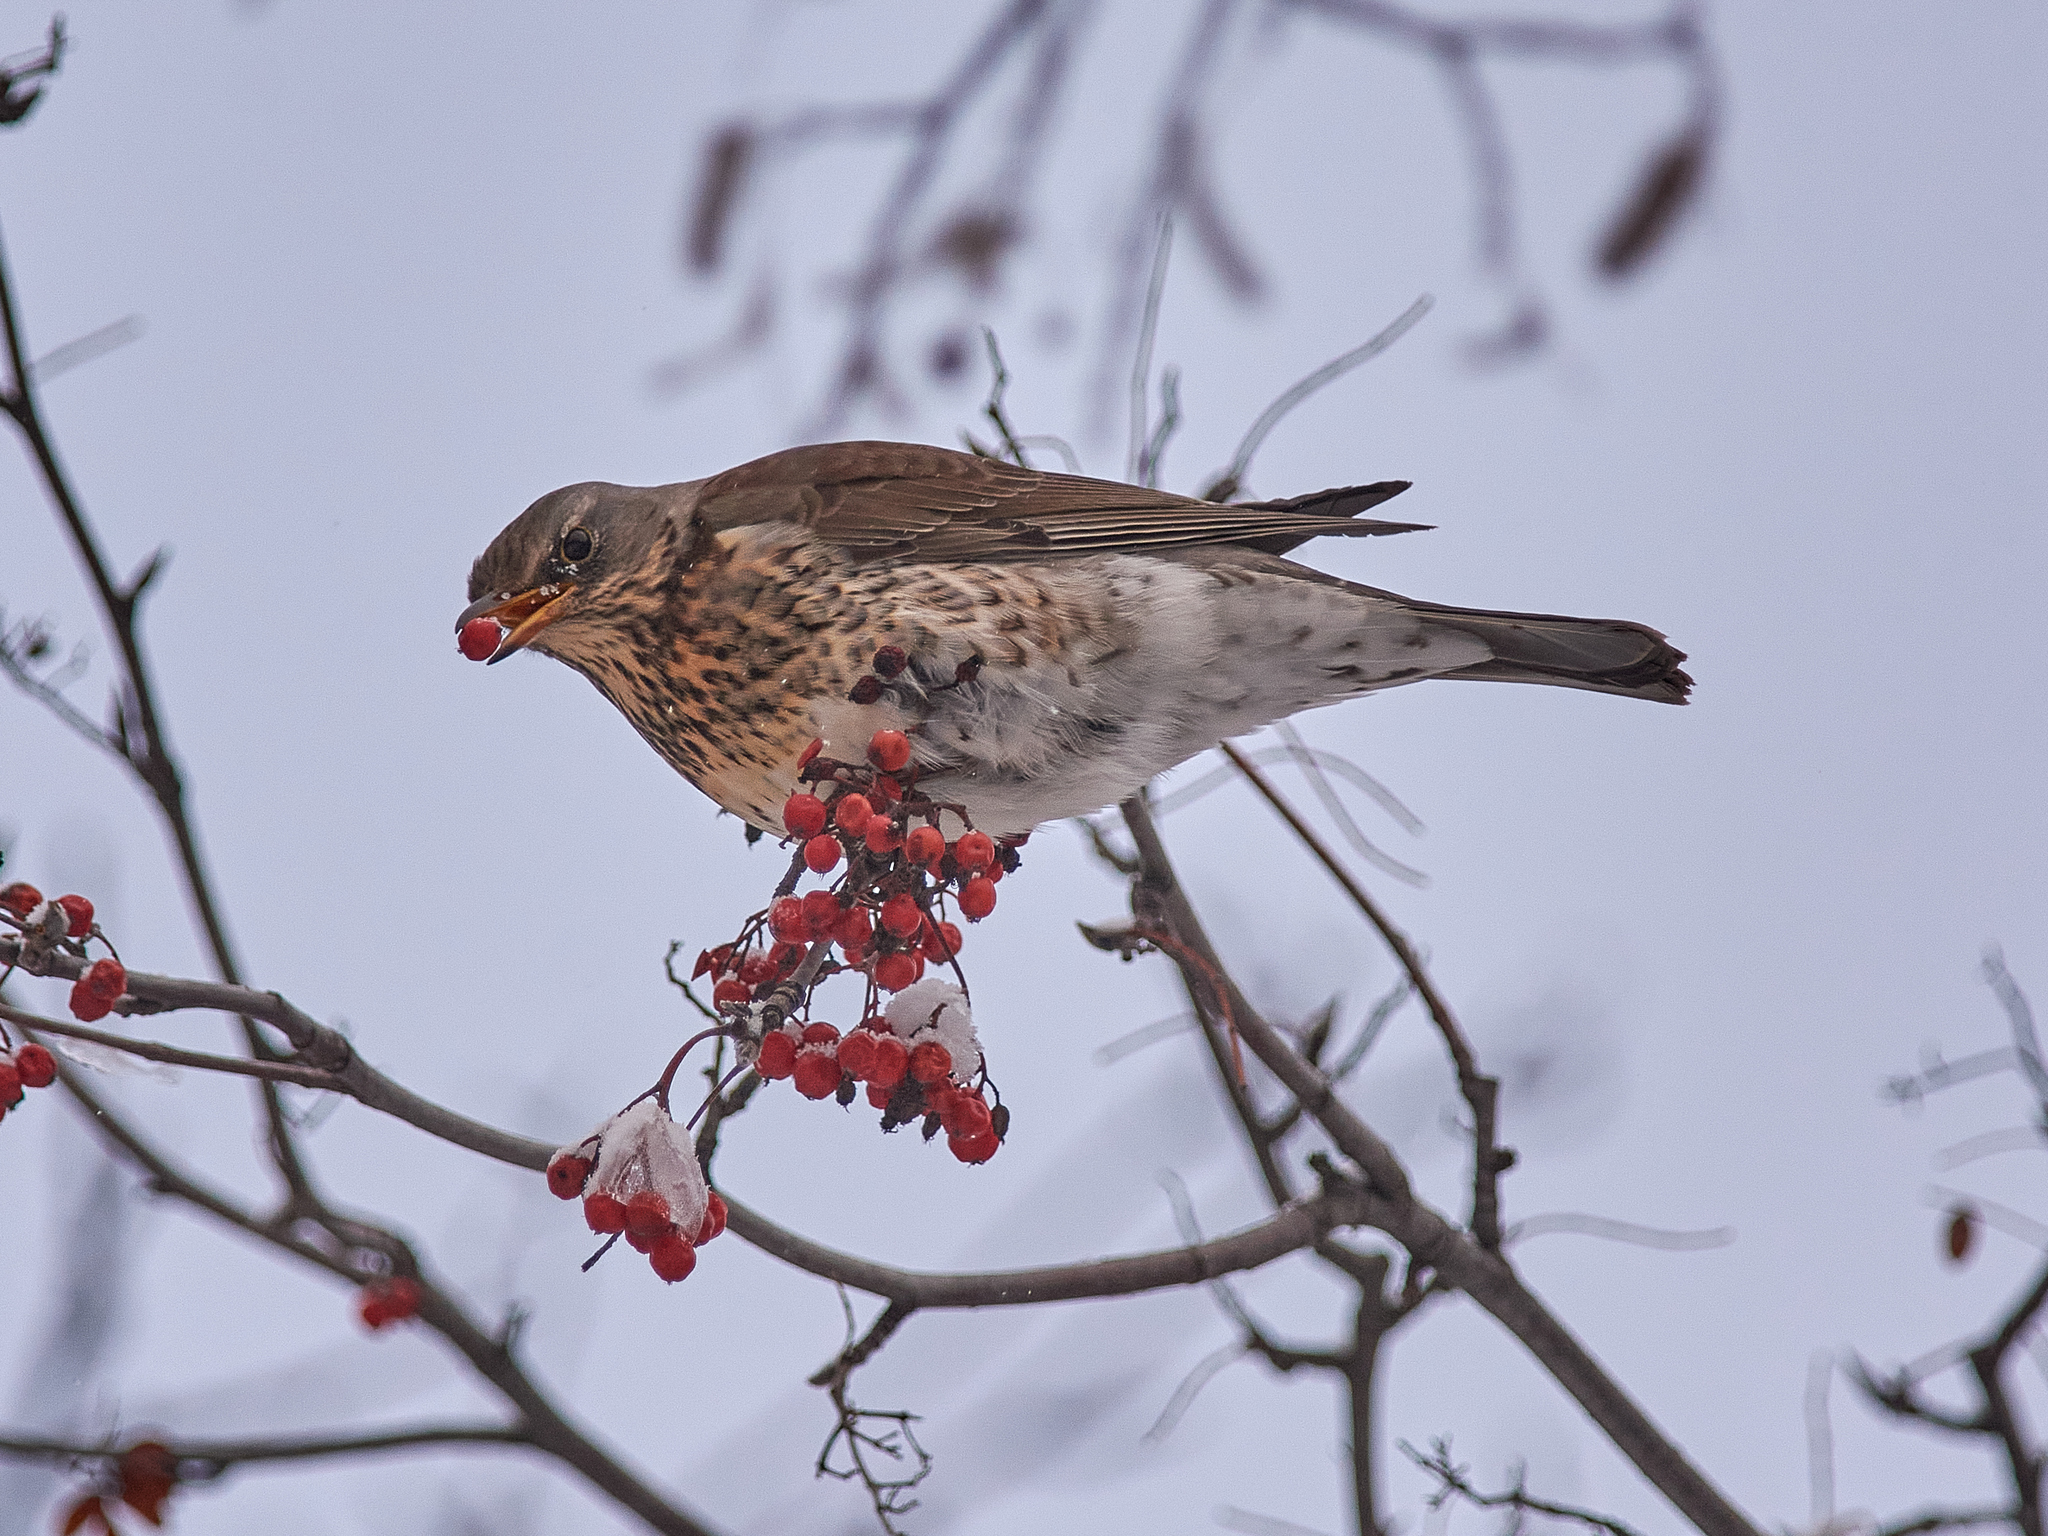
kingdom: Animalia
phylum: Chordata
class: Aves
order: Passeriformes
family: Turdidae
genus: Turdus
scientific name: Turdus pilaris
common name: Fieldfare
